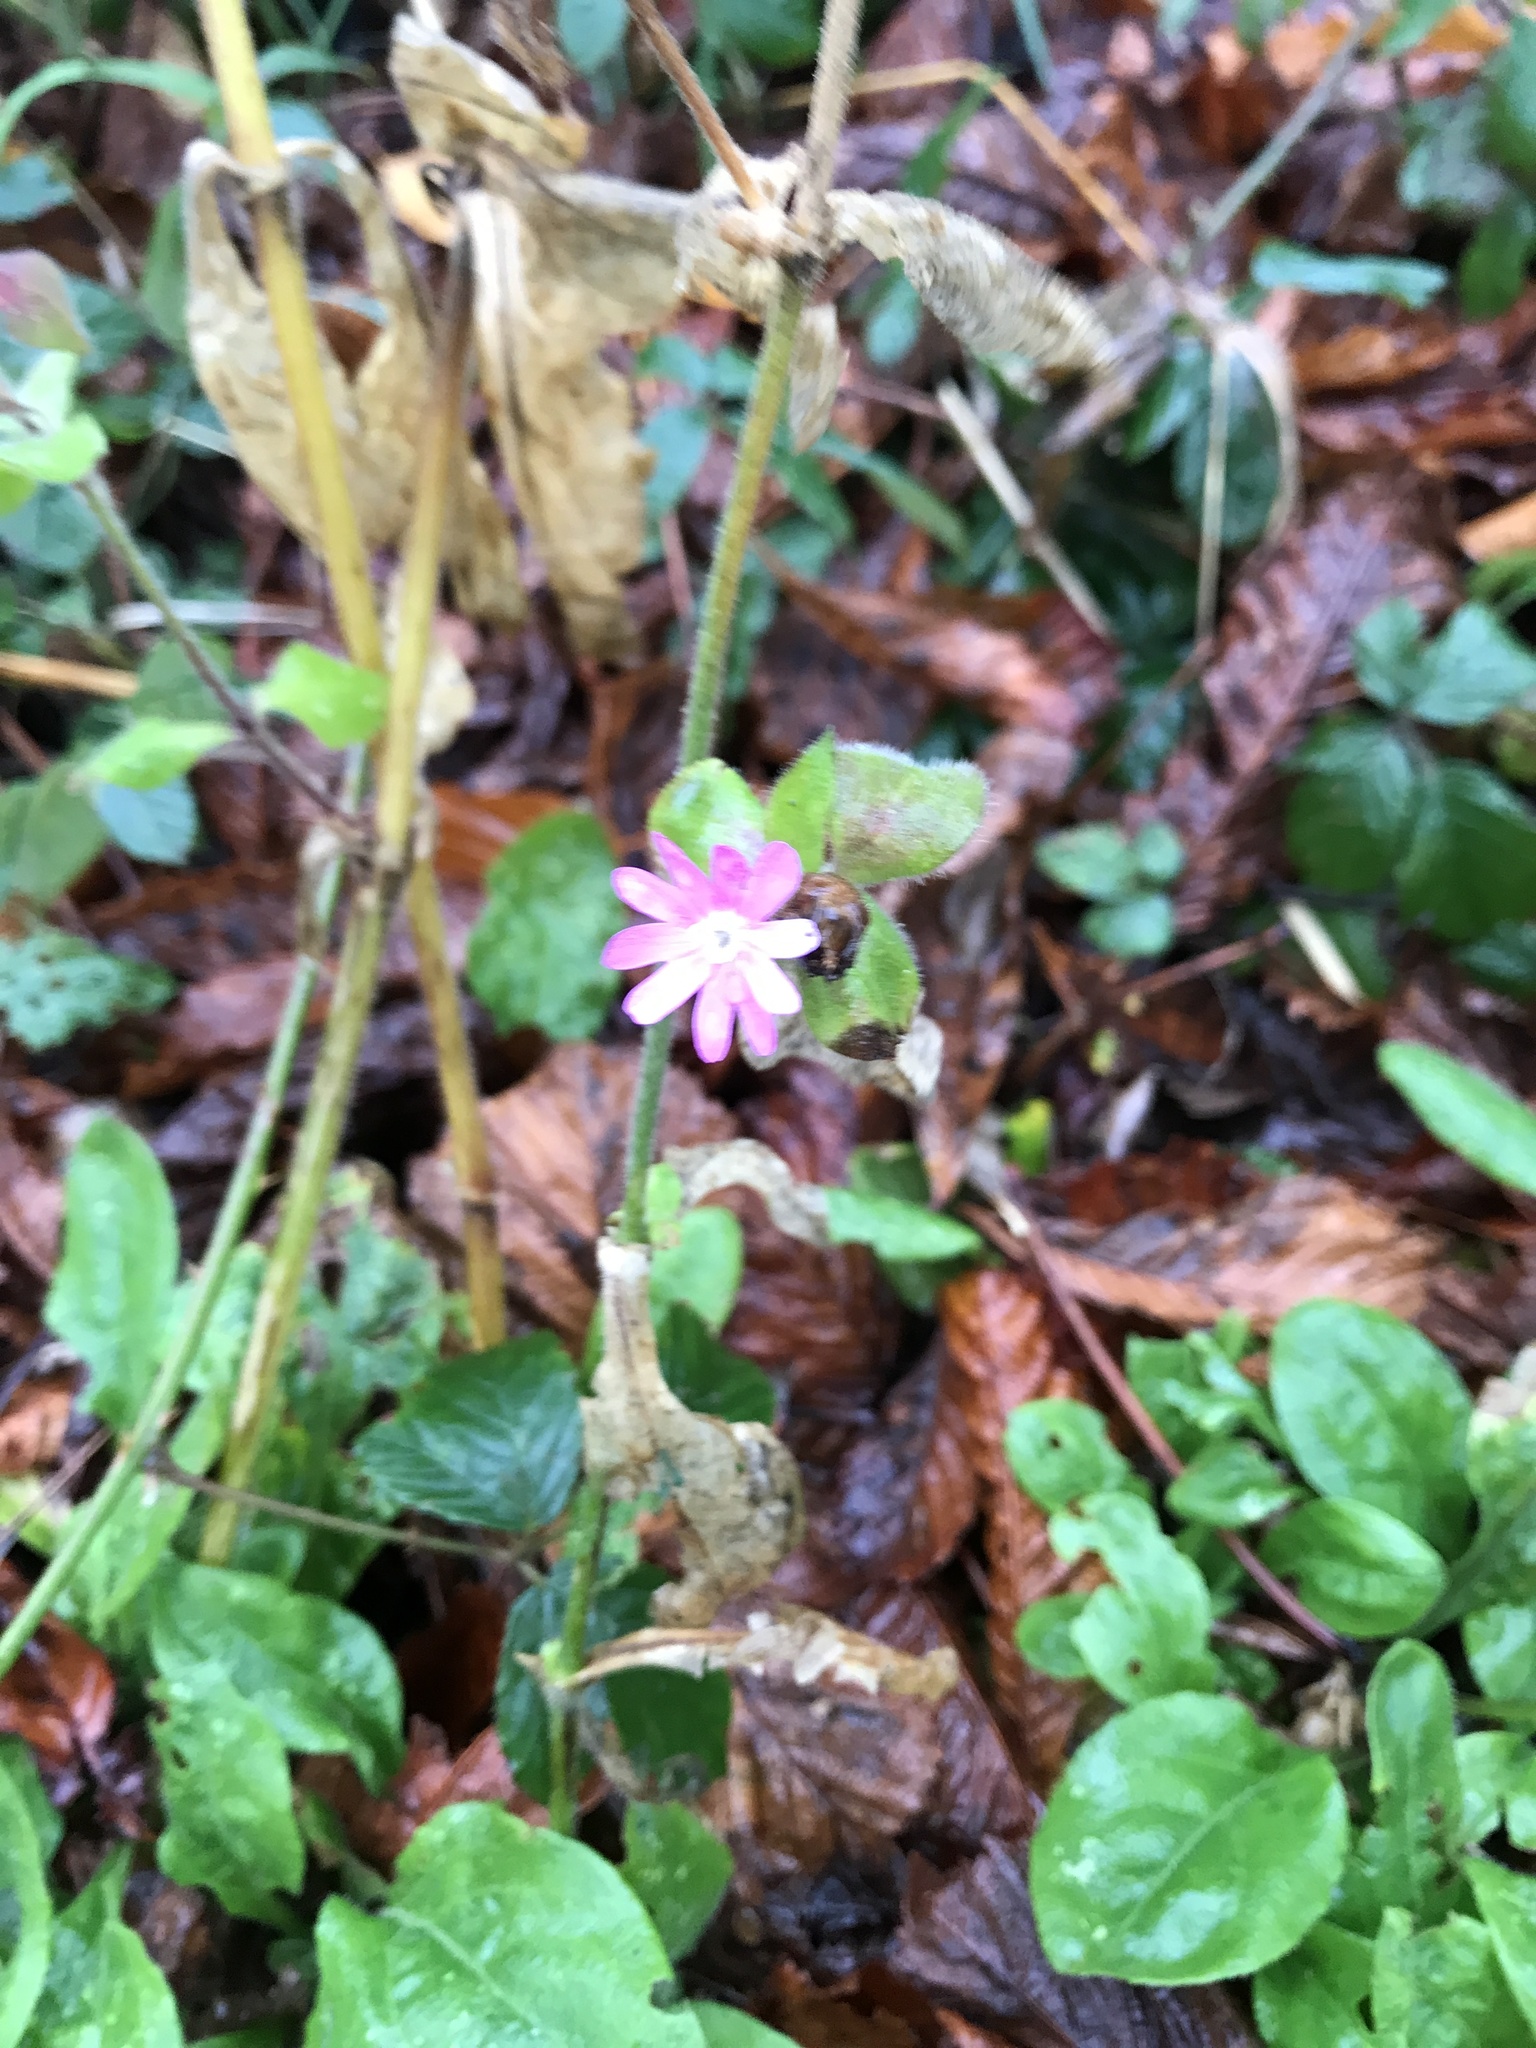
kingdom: Plantae
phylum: Tracheophyta
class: Magnoliopsida
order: Caryophyllales
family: Caryophyllaceae
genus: Silene
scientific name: Silene dioica
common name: Red campion
